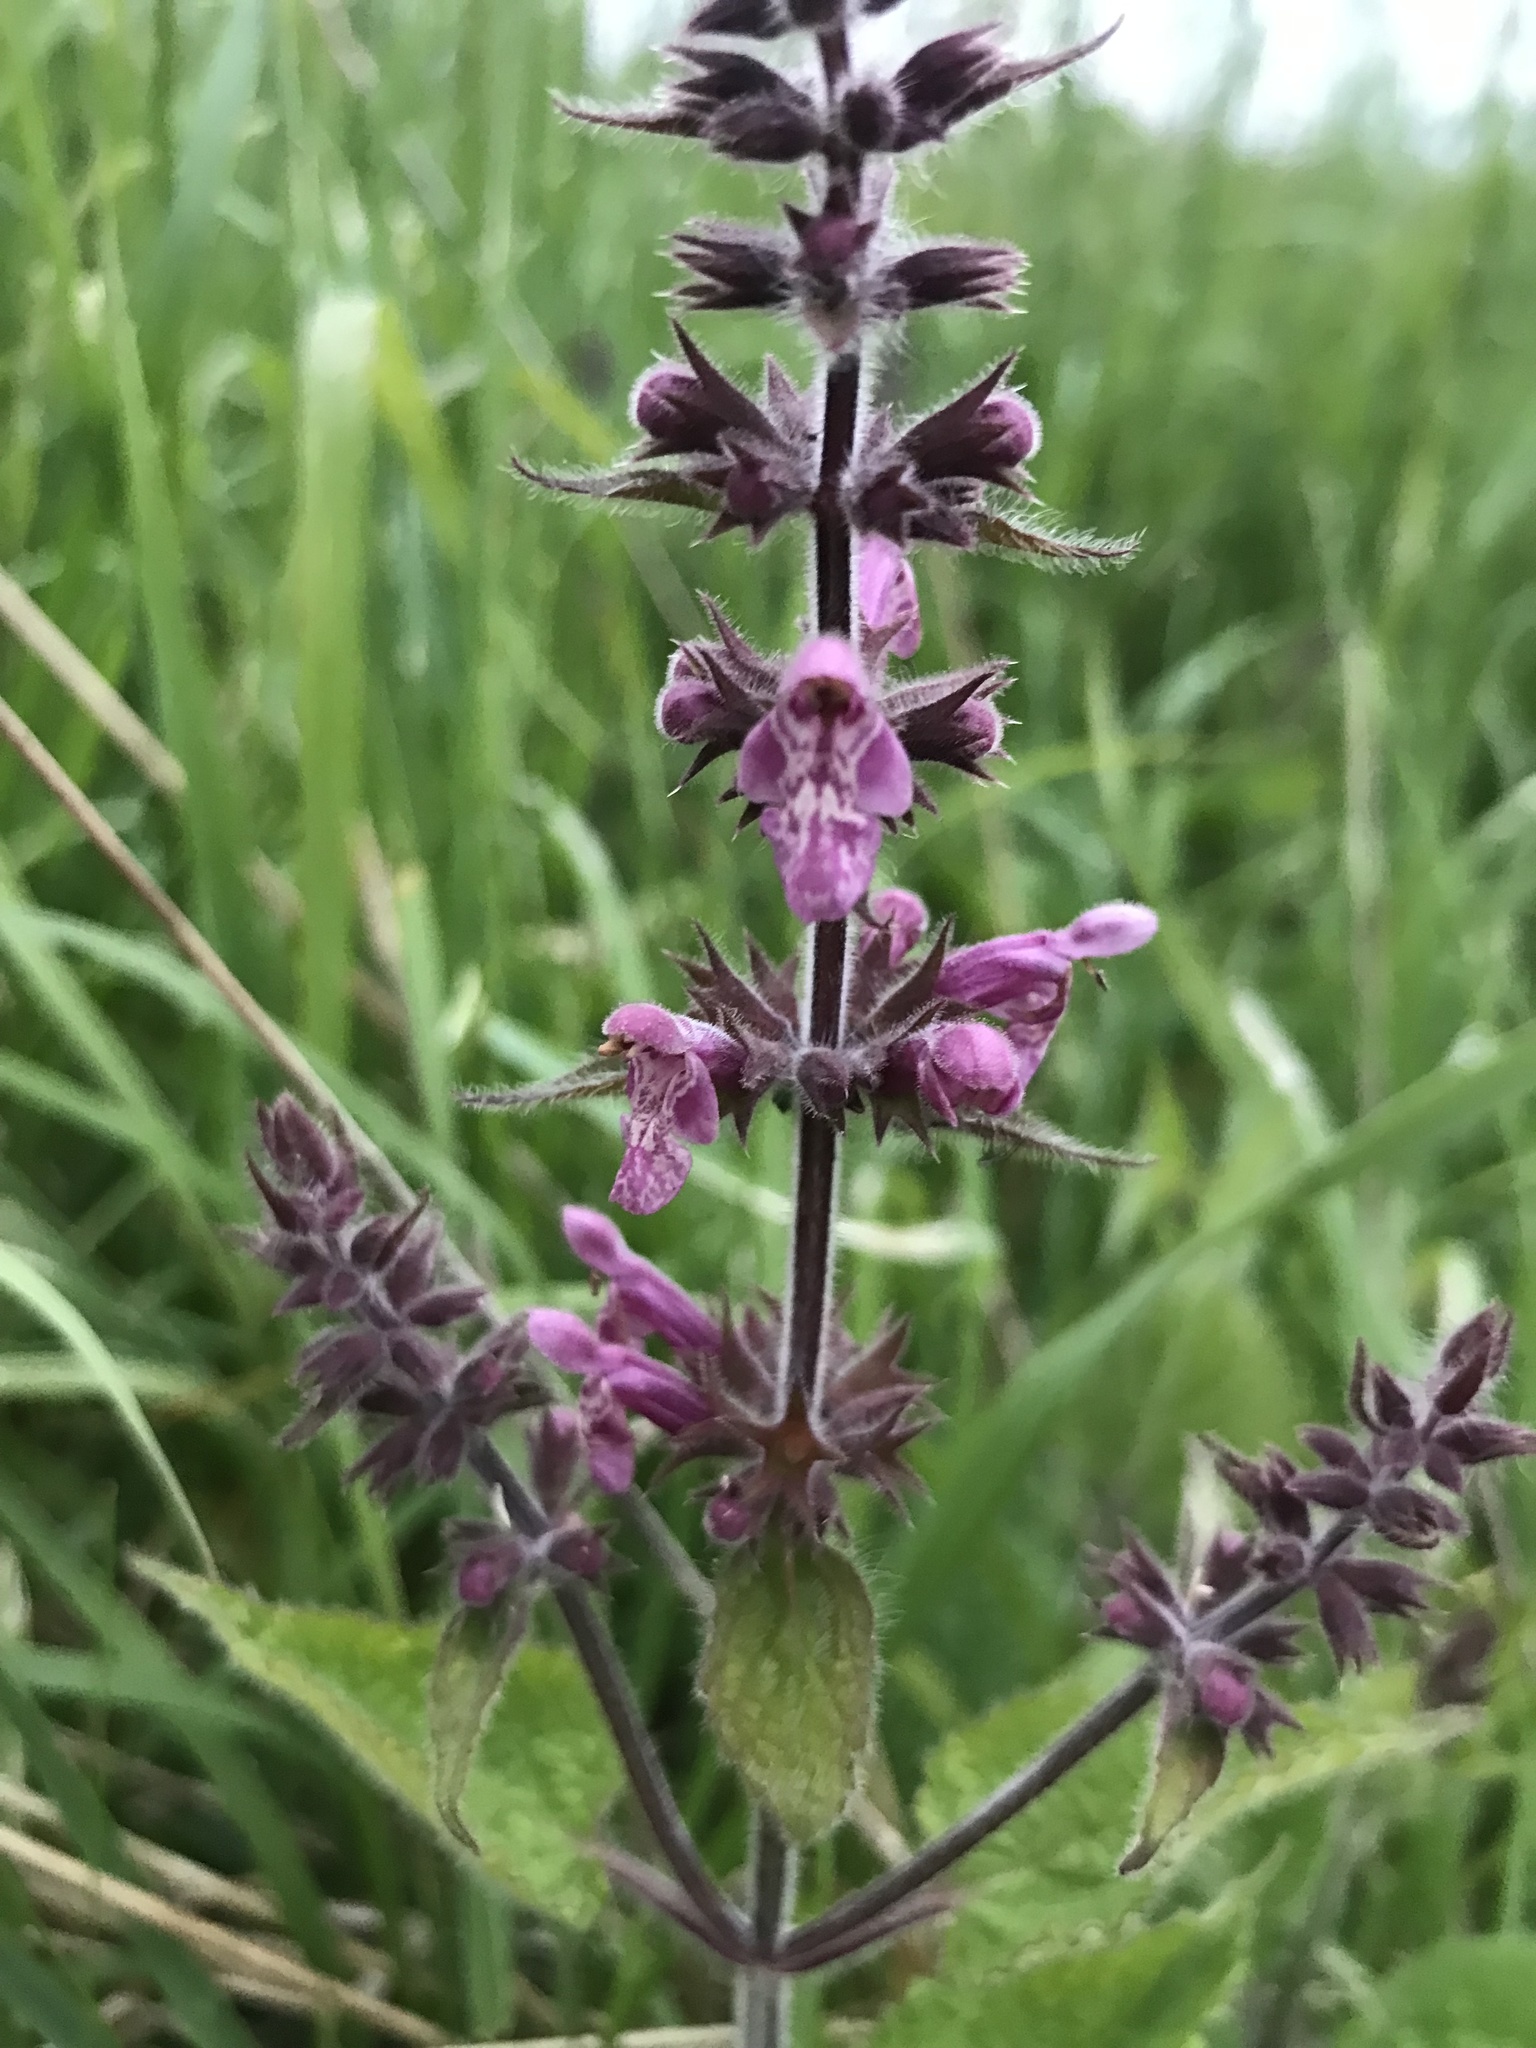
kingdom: Plantae
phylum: Tracheophyta
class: Magnoliopsida
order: Lamiales
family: Lamiaceae
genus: Stachys
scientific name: Stachys sylvatica
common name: Hedge woundwort
